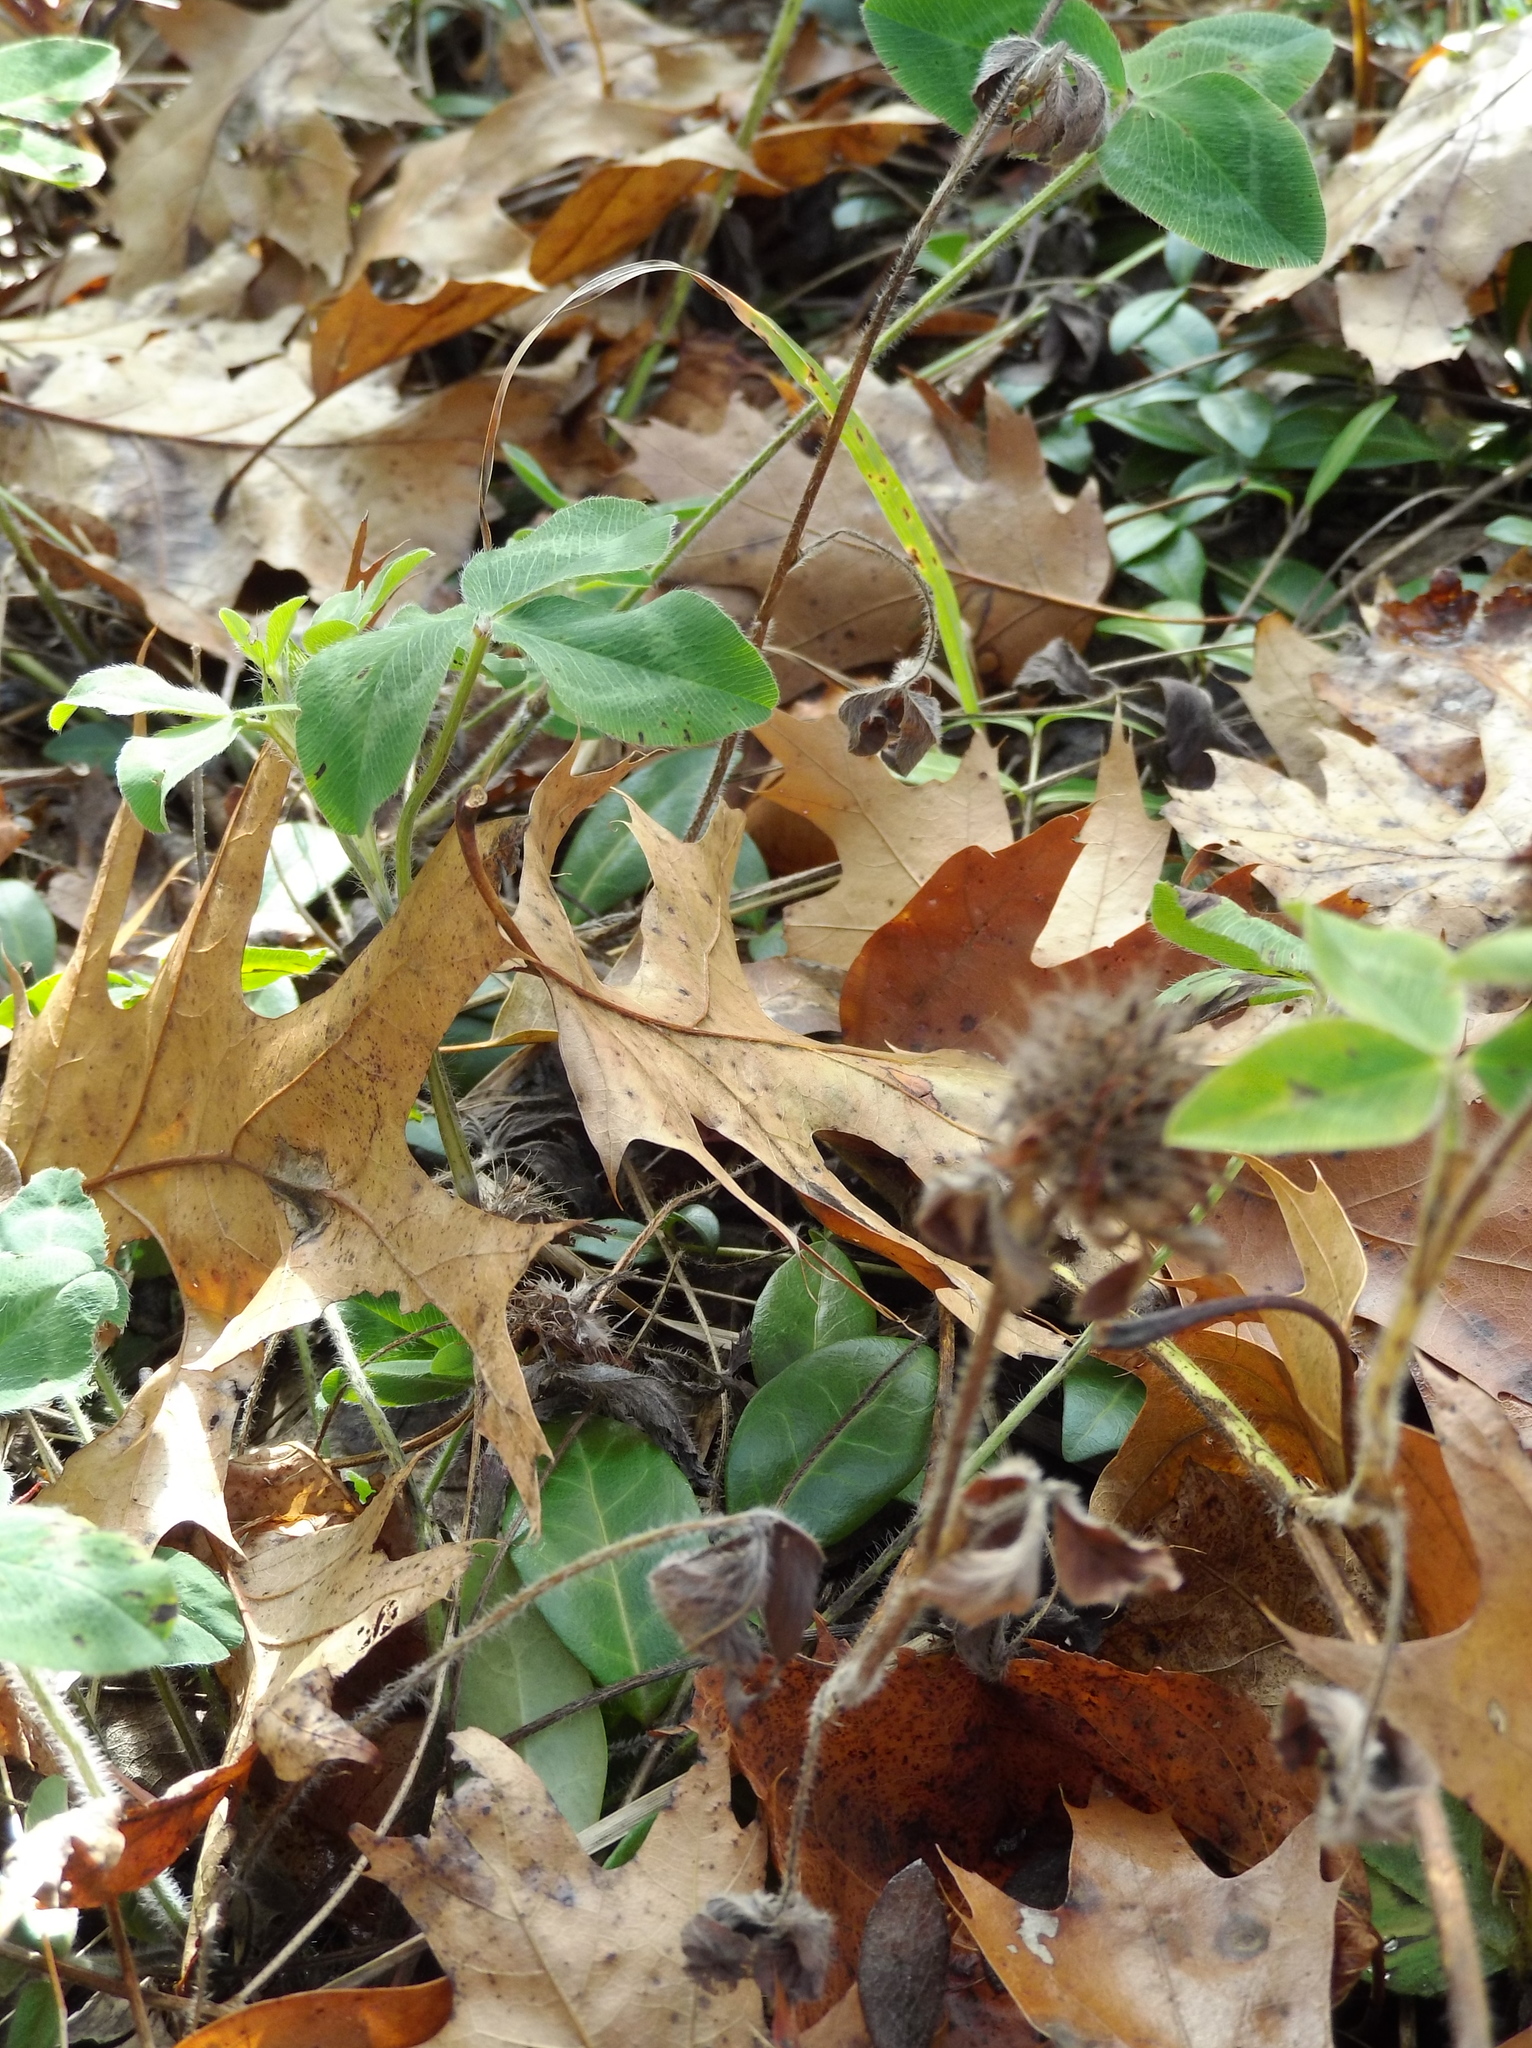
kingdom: Plantae
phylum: Tracheophyta
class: Magnoliopsida
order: Fabales
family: Fabaceae
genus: Trifolium
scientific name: Trifolium pratense
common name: Red clover
